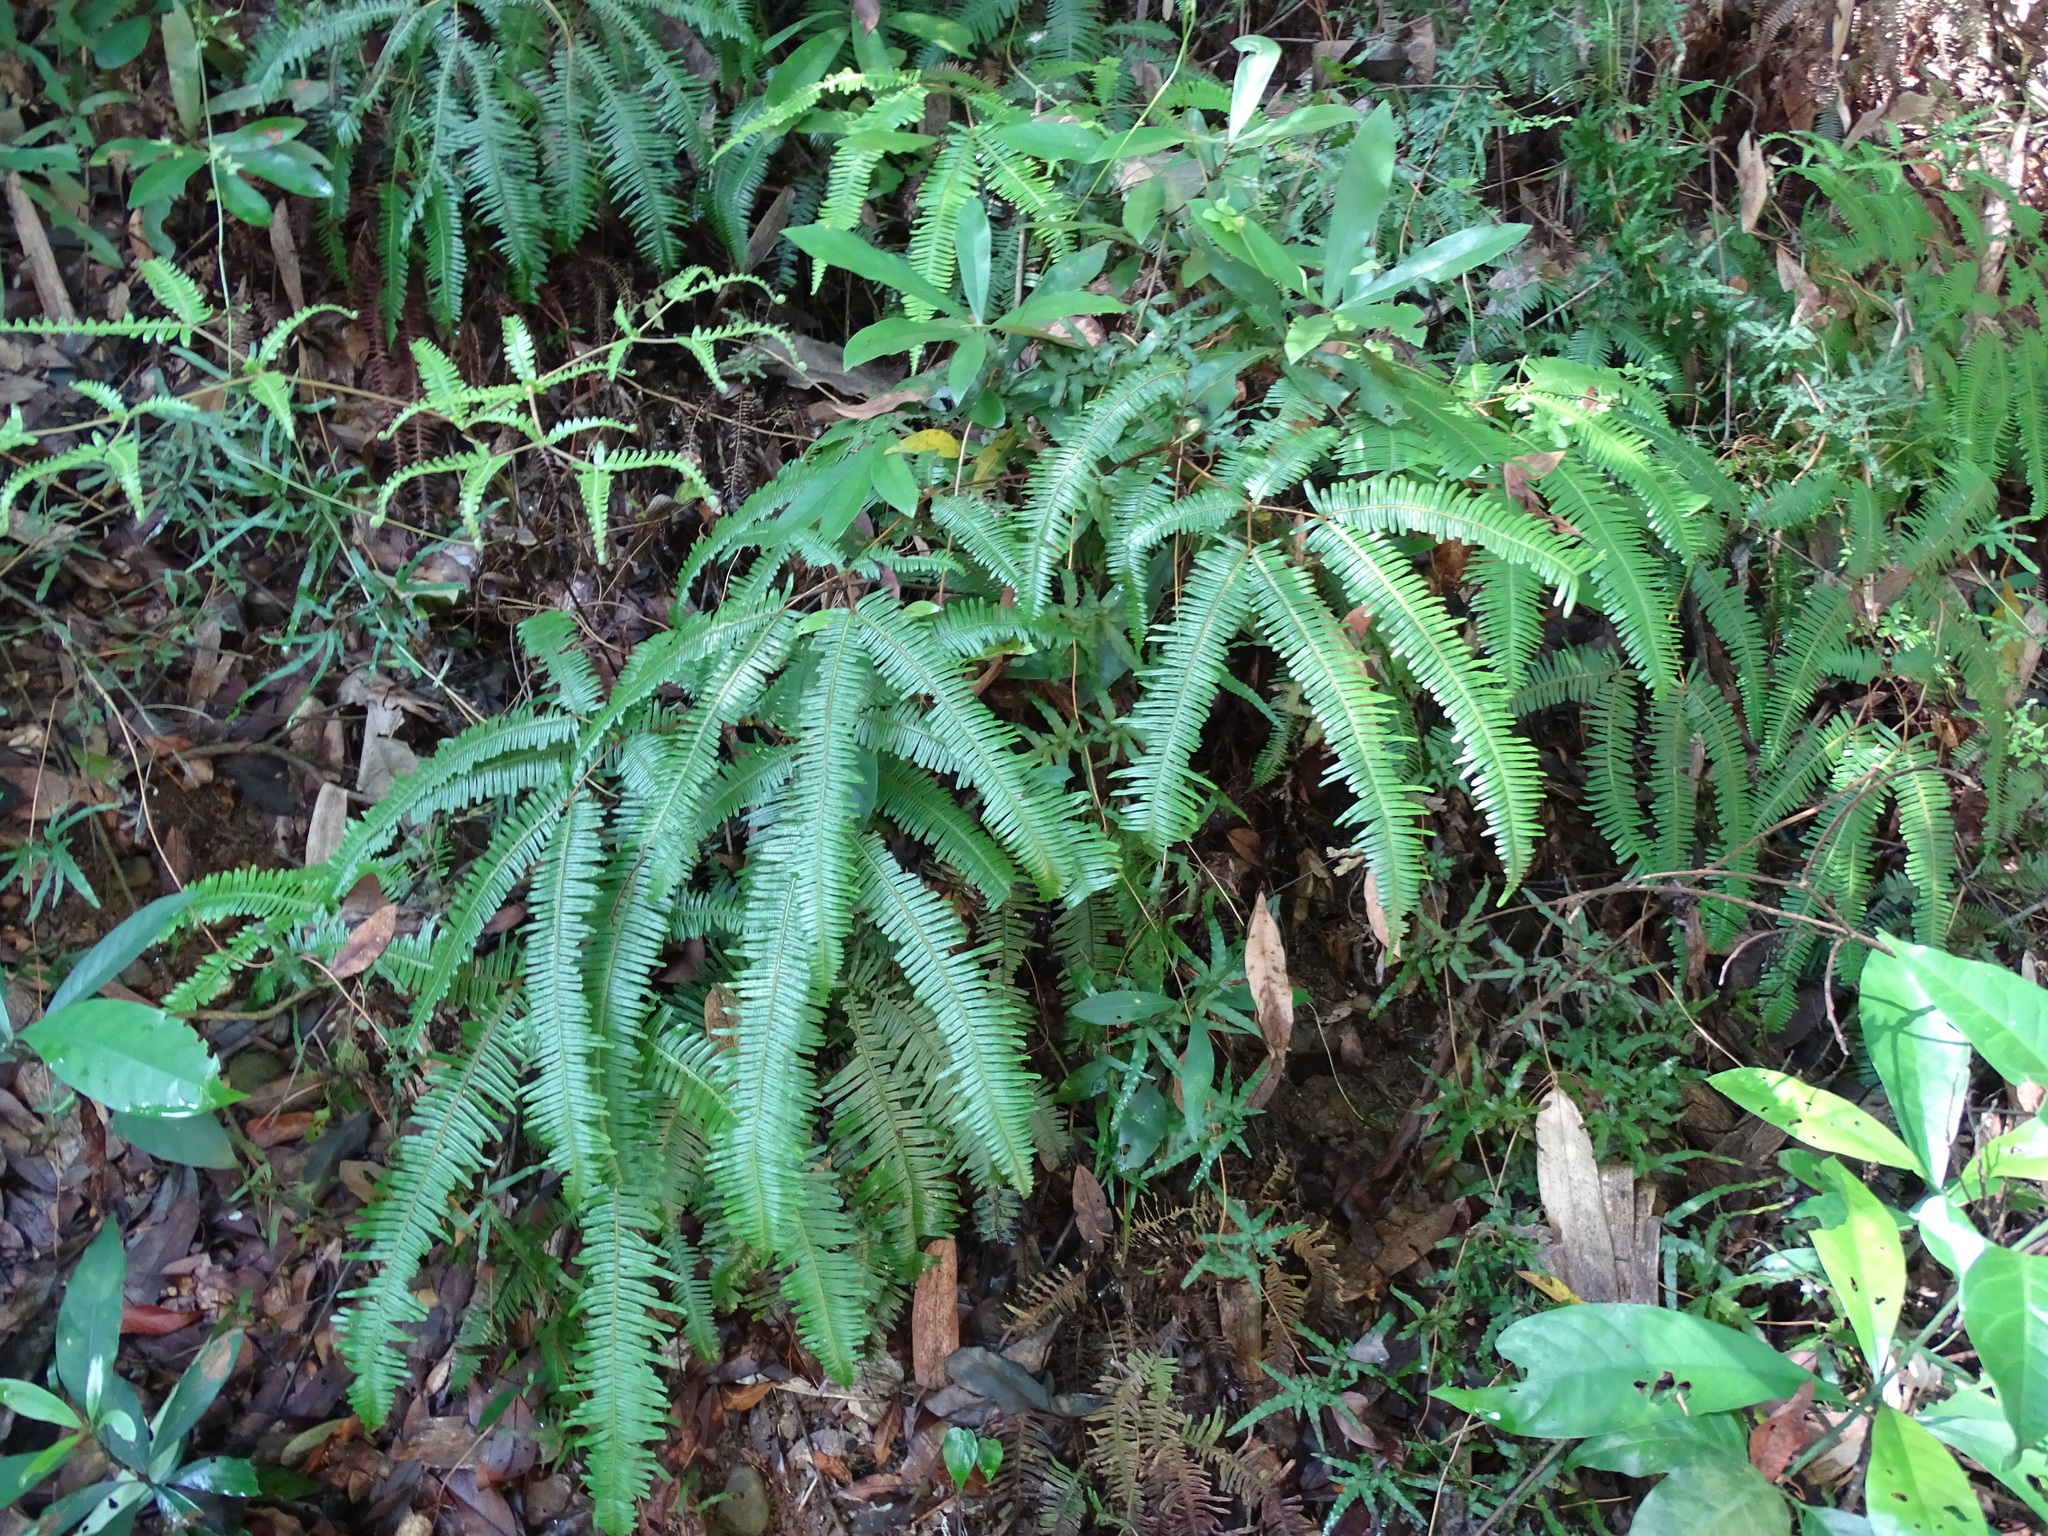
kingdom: Plantae
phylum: Tracheophyta
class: Polypodiopsida
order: Gleicheniales
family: Gleicheniaceae
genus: Dicranopteris
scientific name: Dicranopteris linearis
